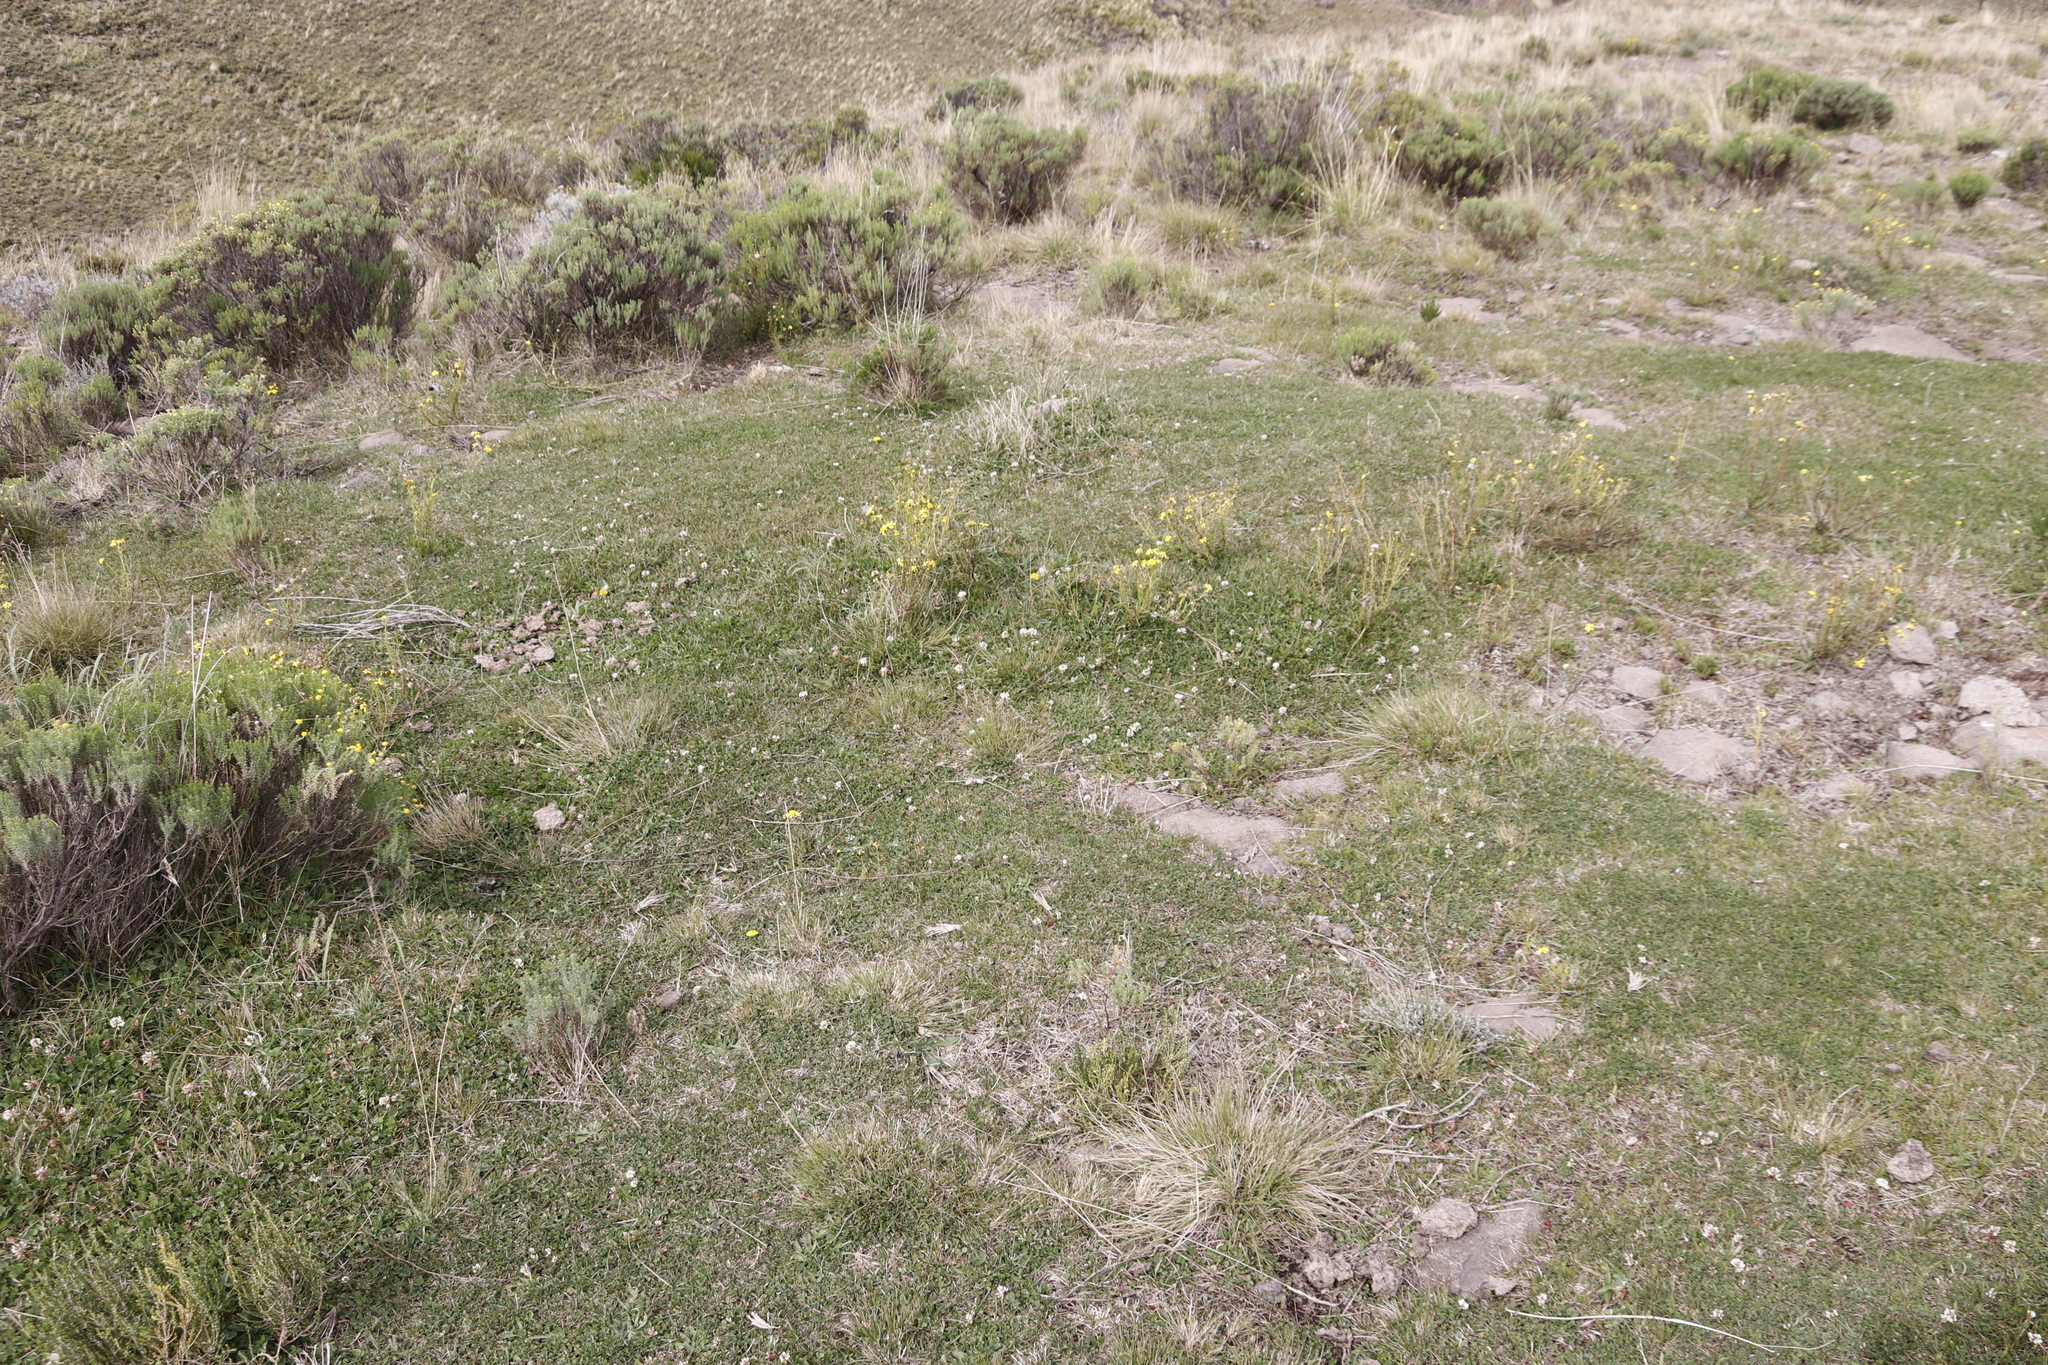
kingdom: Plantae
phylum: Tracheophyta
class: Magnoliopsida
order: Fabales
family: Fabaceae
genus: Trifolium
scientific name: Trifolium repens
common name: White clover
